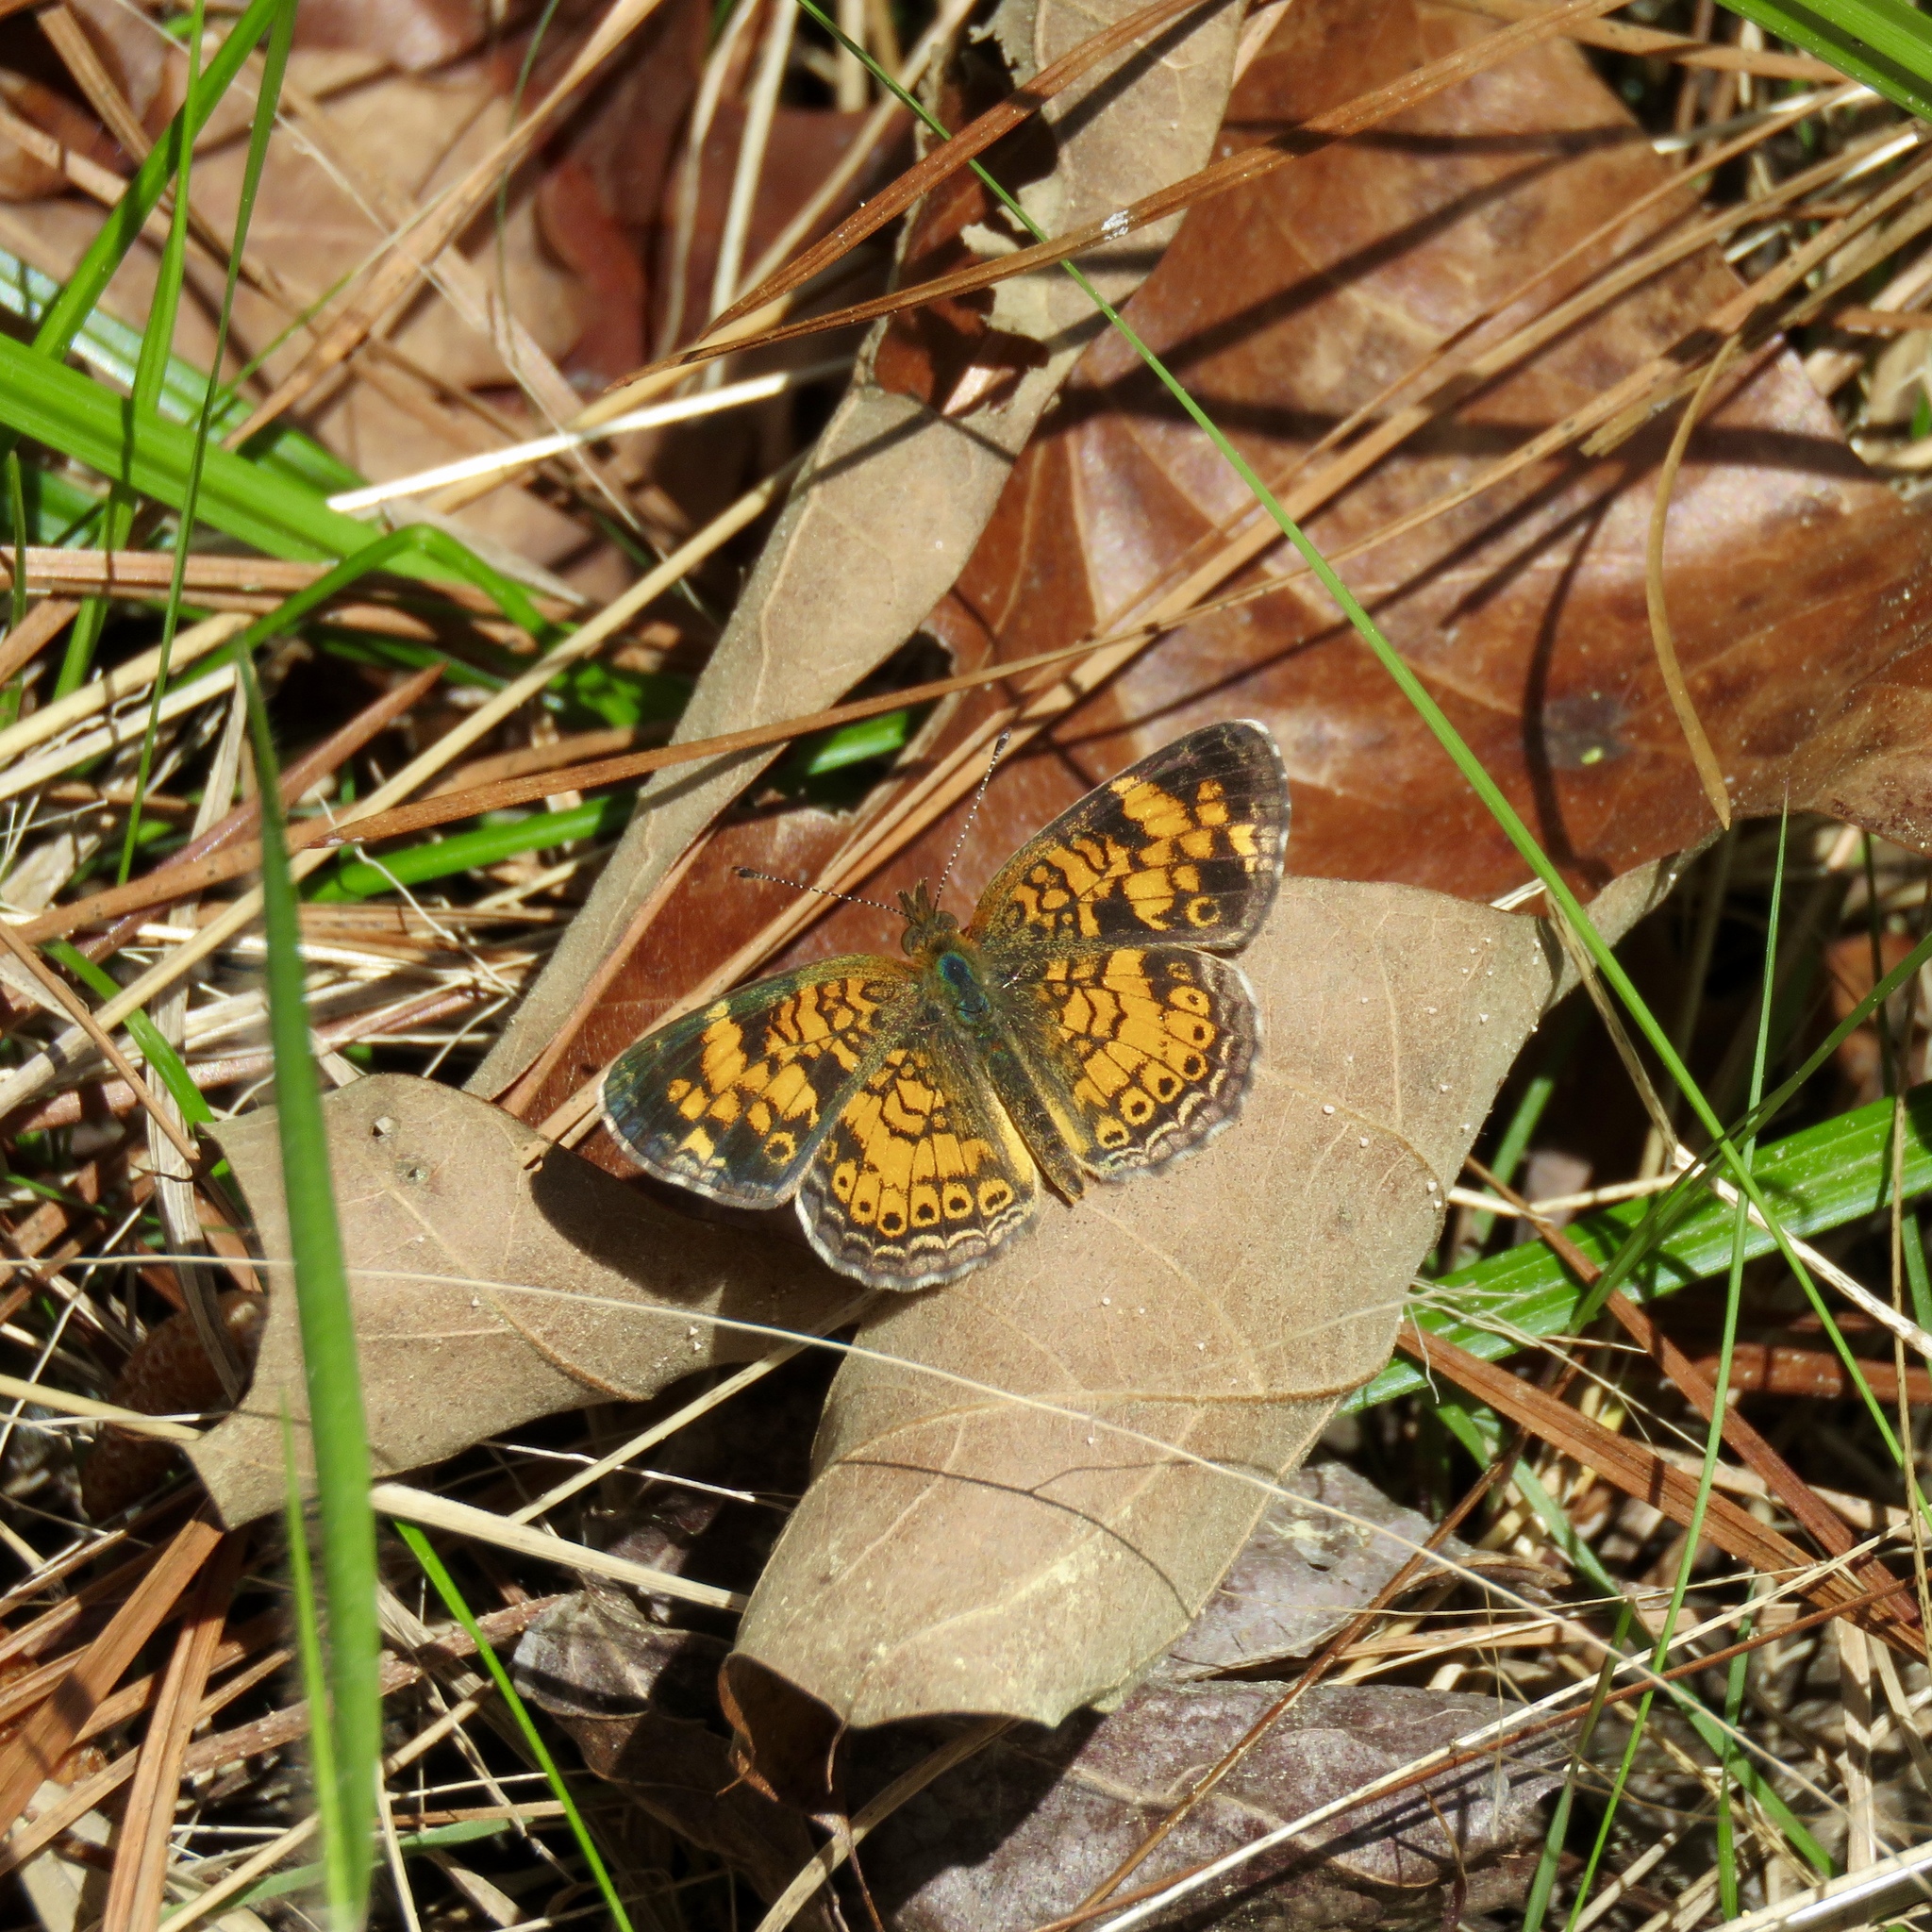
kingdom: Animalia
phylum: Arthropoda
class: Insecta
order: Lepidoptera
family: Nymphalidae
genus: Phyciodes
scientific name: Phyciodes tharos
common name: Pearl crescent
